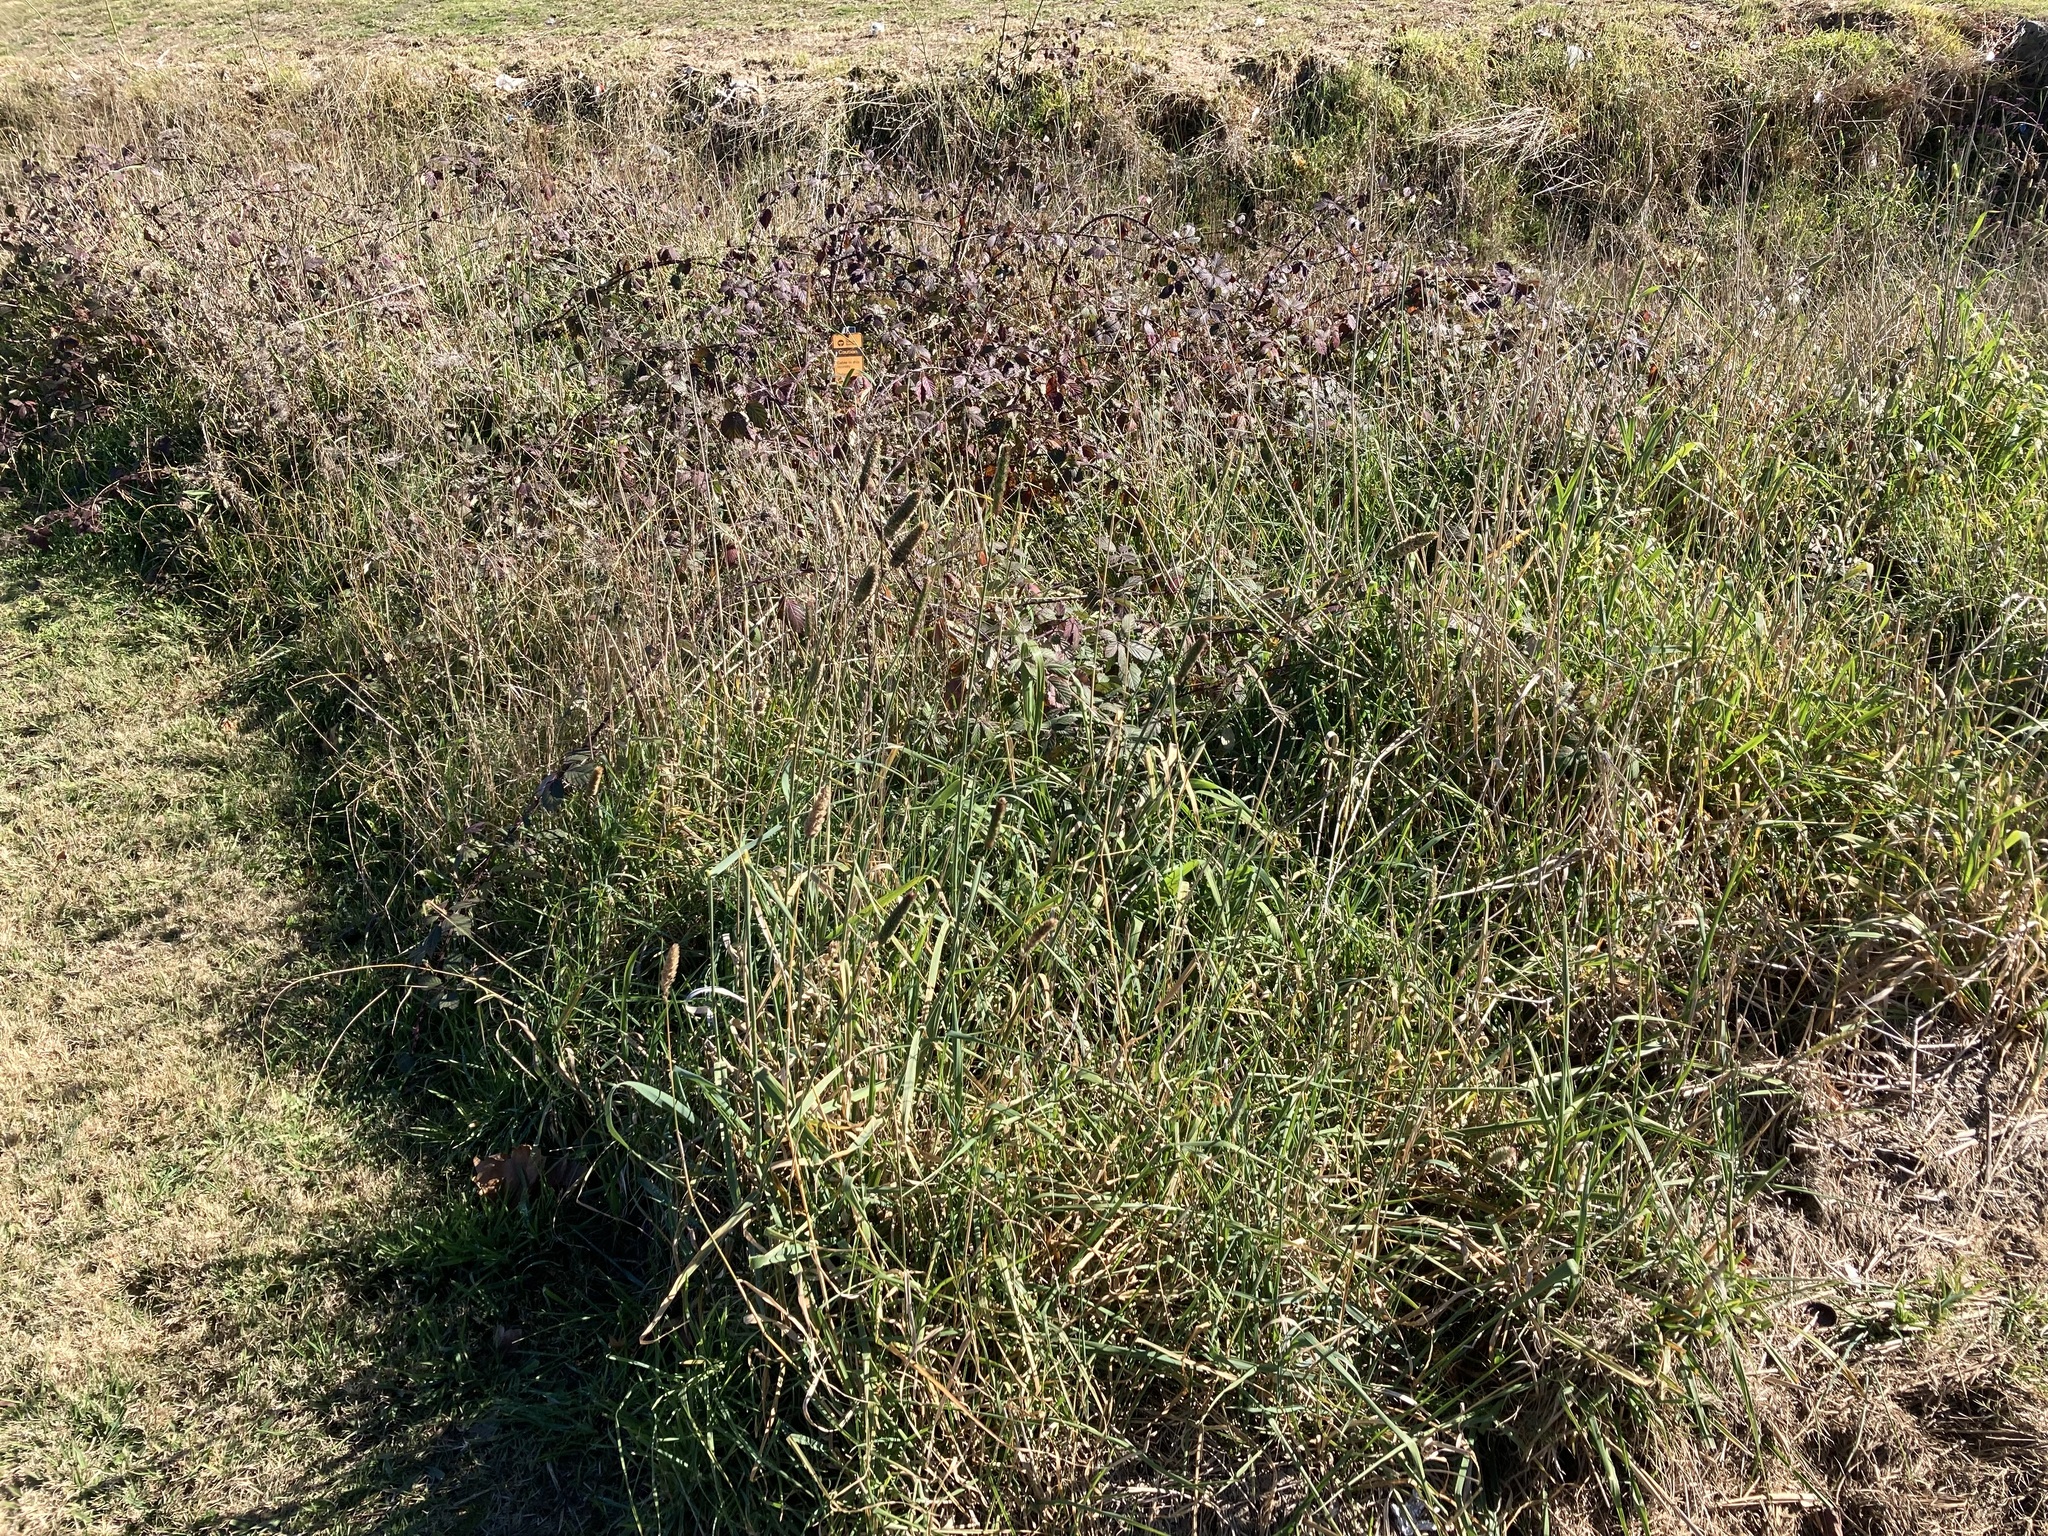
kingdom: Plantae
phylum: Tracheophyta
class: Liliopsida
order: Poales
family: Poaceae
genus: Phalaris
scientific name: Phalaris aquatica
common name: Bulbous canary-grass
